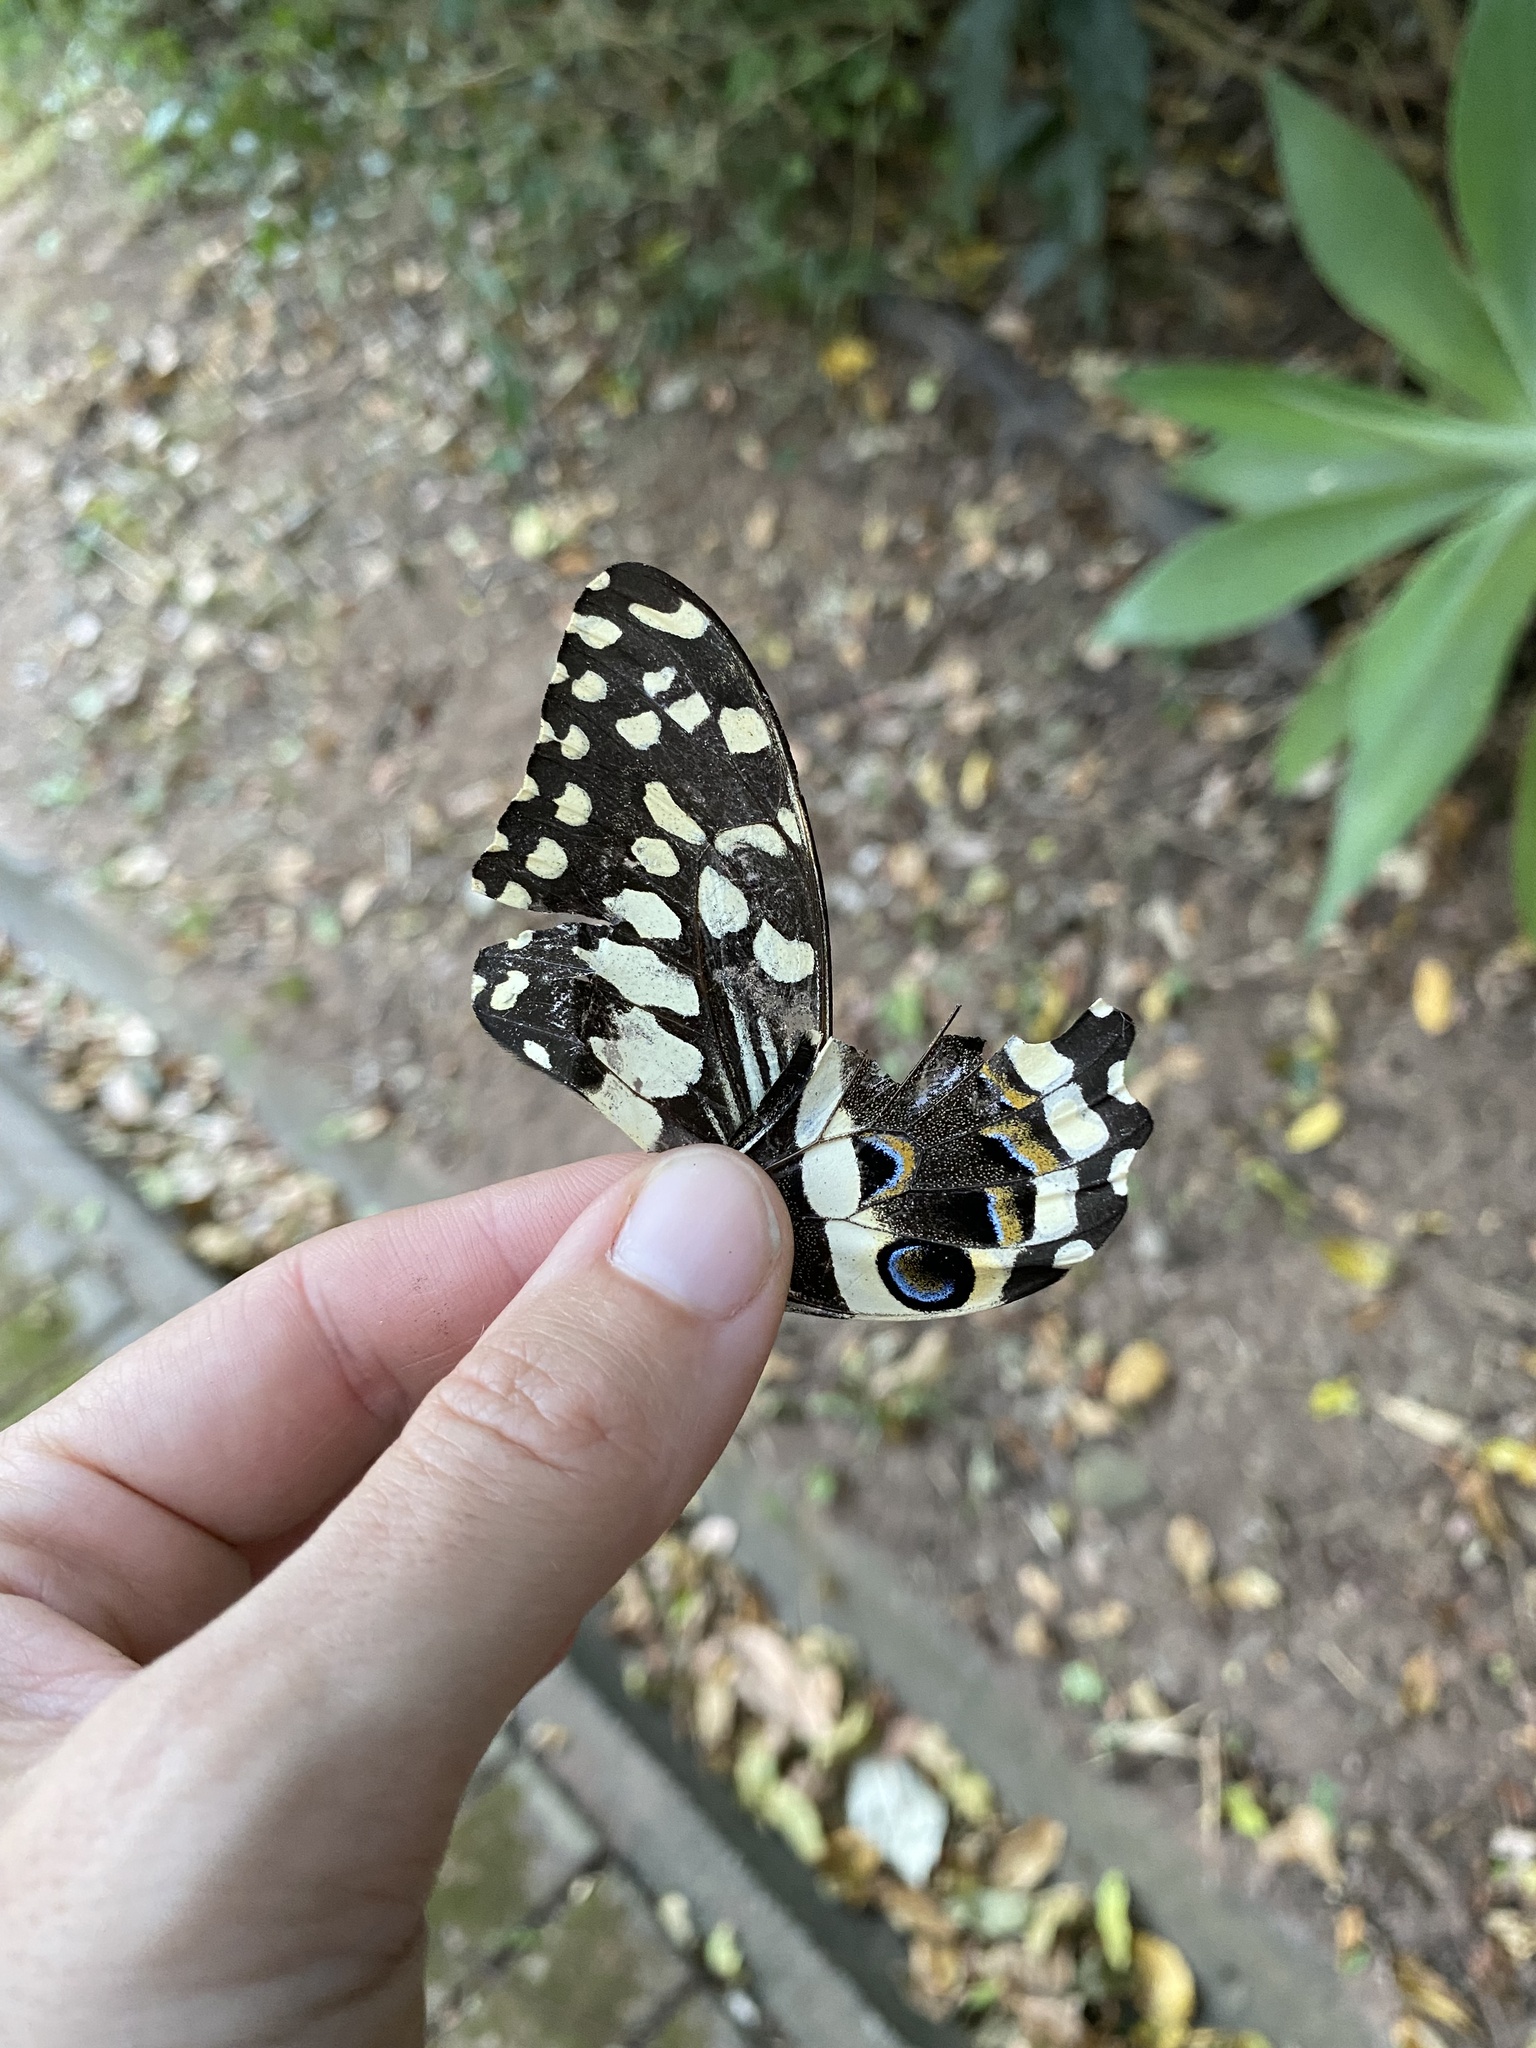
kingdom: Animalia
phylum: Arthropoda
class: Insecta
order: Lepidoptera
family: Papilionidae
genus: Papilio
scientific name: Papilio demodocus
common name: Christmas butterfly
